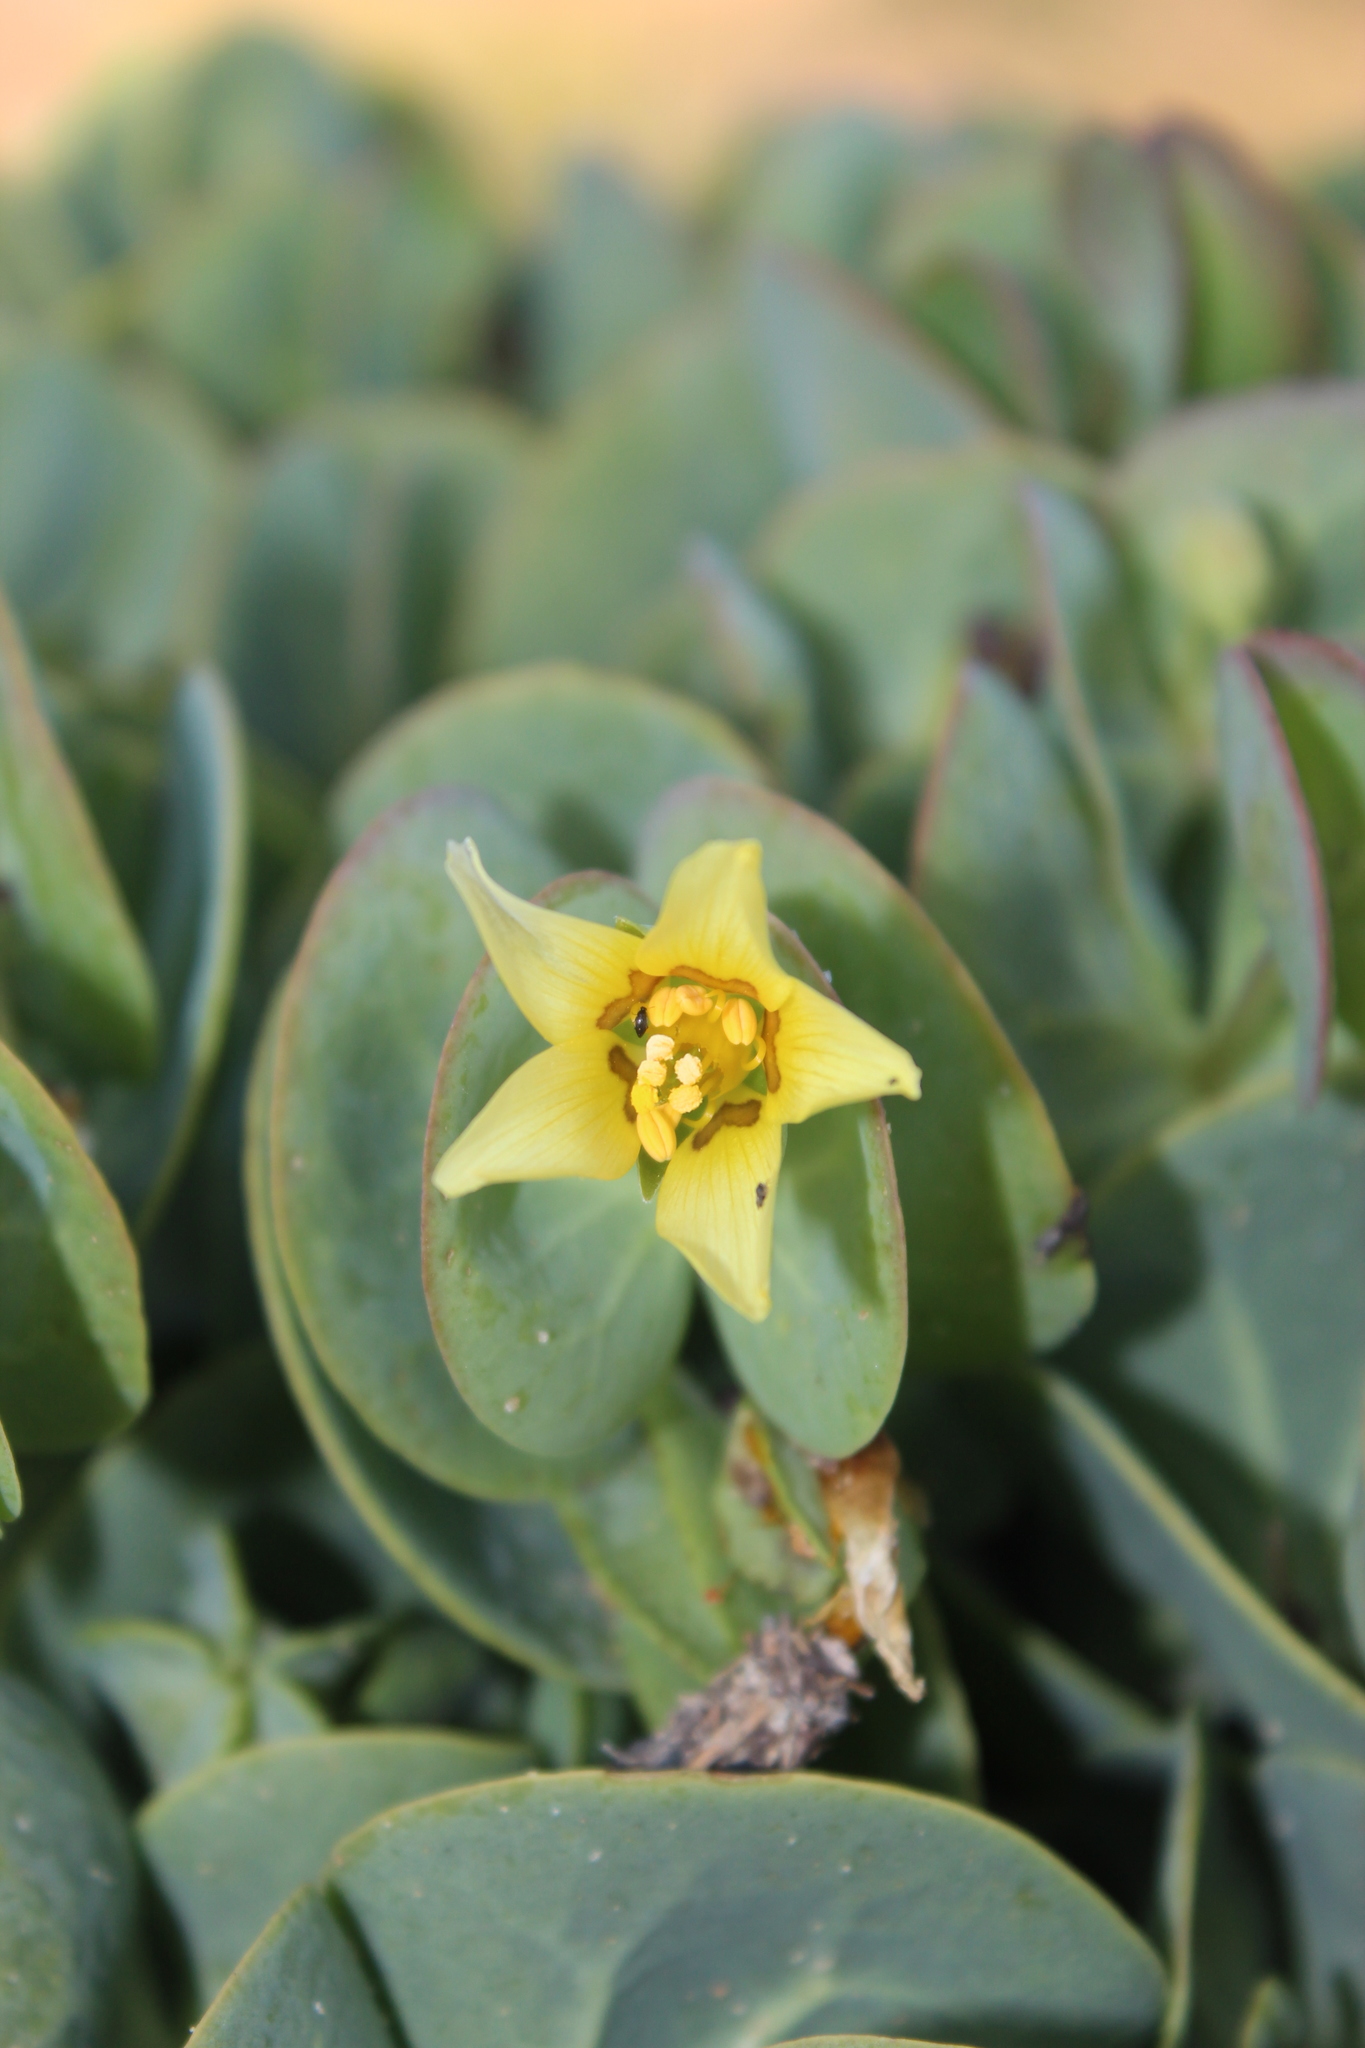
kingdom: Plantae
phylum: Tracheophyta
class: Magnoliopsida
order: Zygophyllales
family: Zygophyllaceae
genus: Roepera
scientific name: Roepera cordifolia
